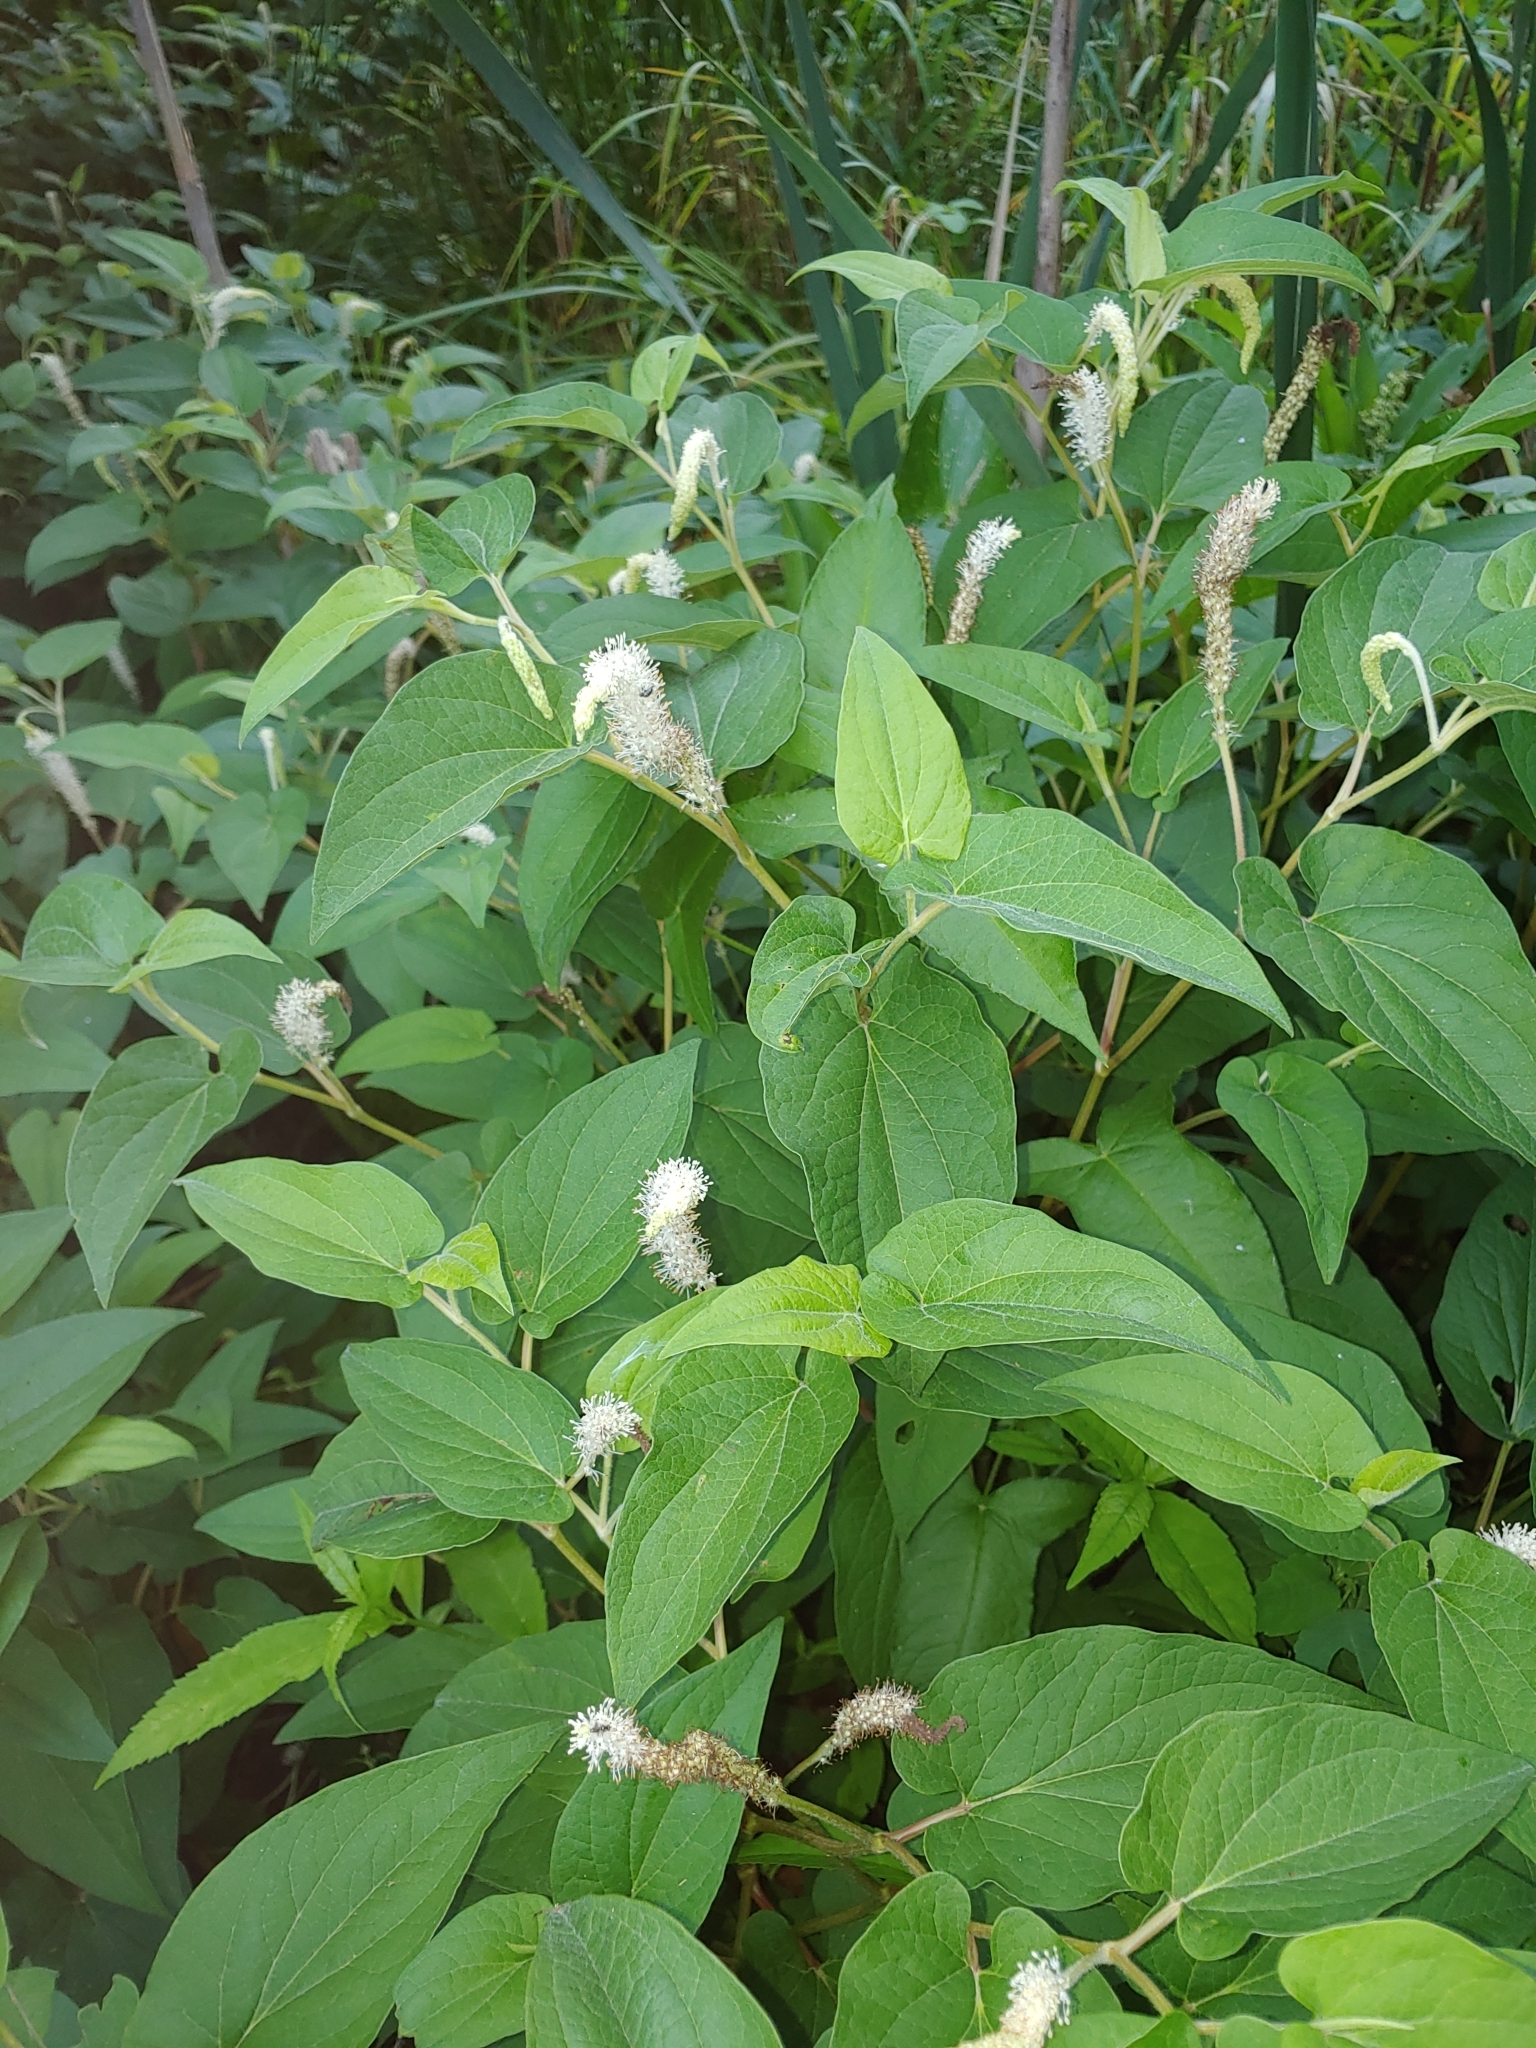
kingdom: Plantae
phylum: Tracheophyta
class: Magnoliopsida
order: Piperales
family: Saururaceae
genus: Saururus
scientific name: Saururus cernuus
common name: Lizard's-tail
